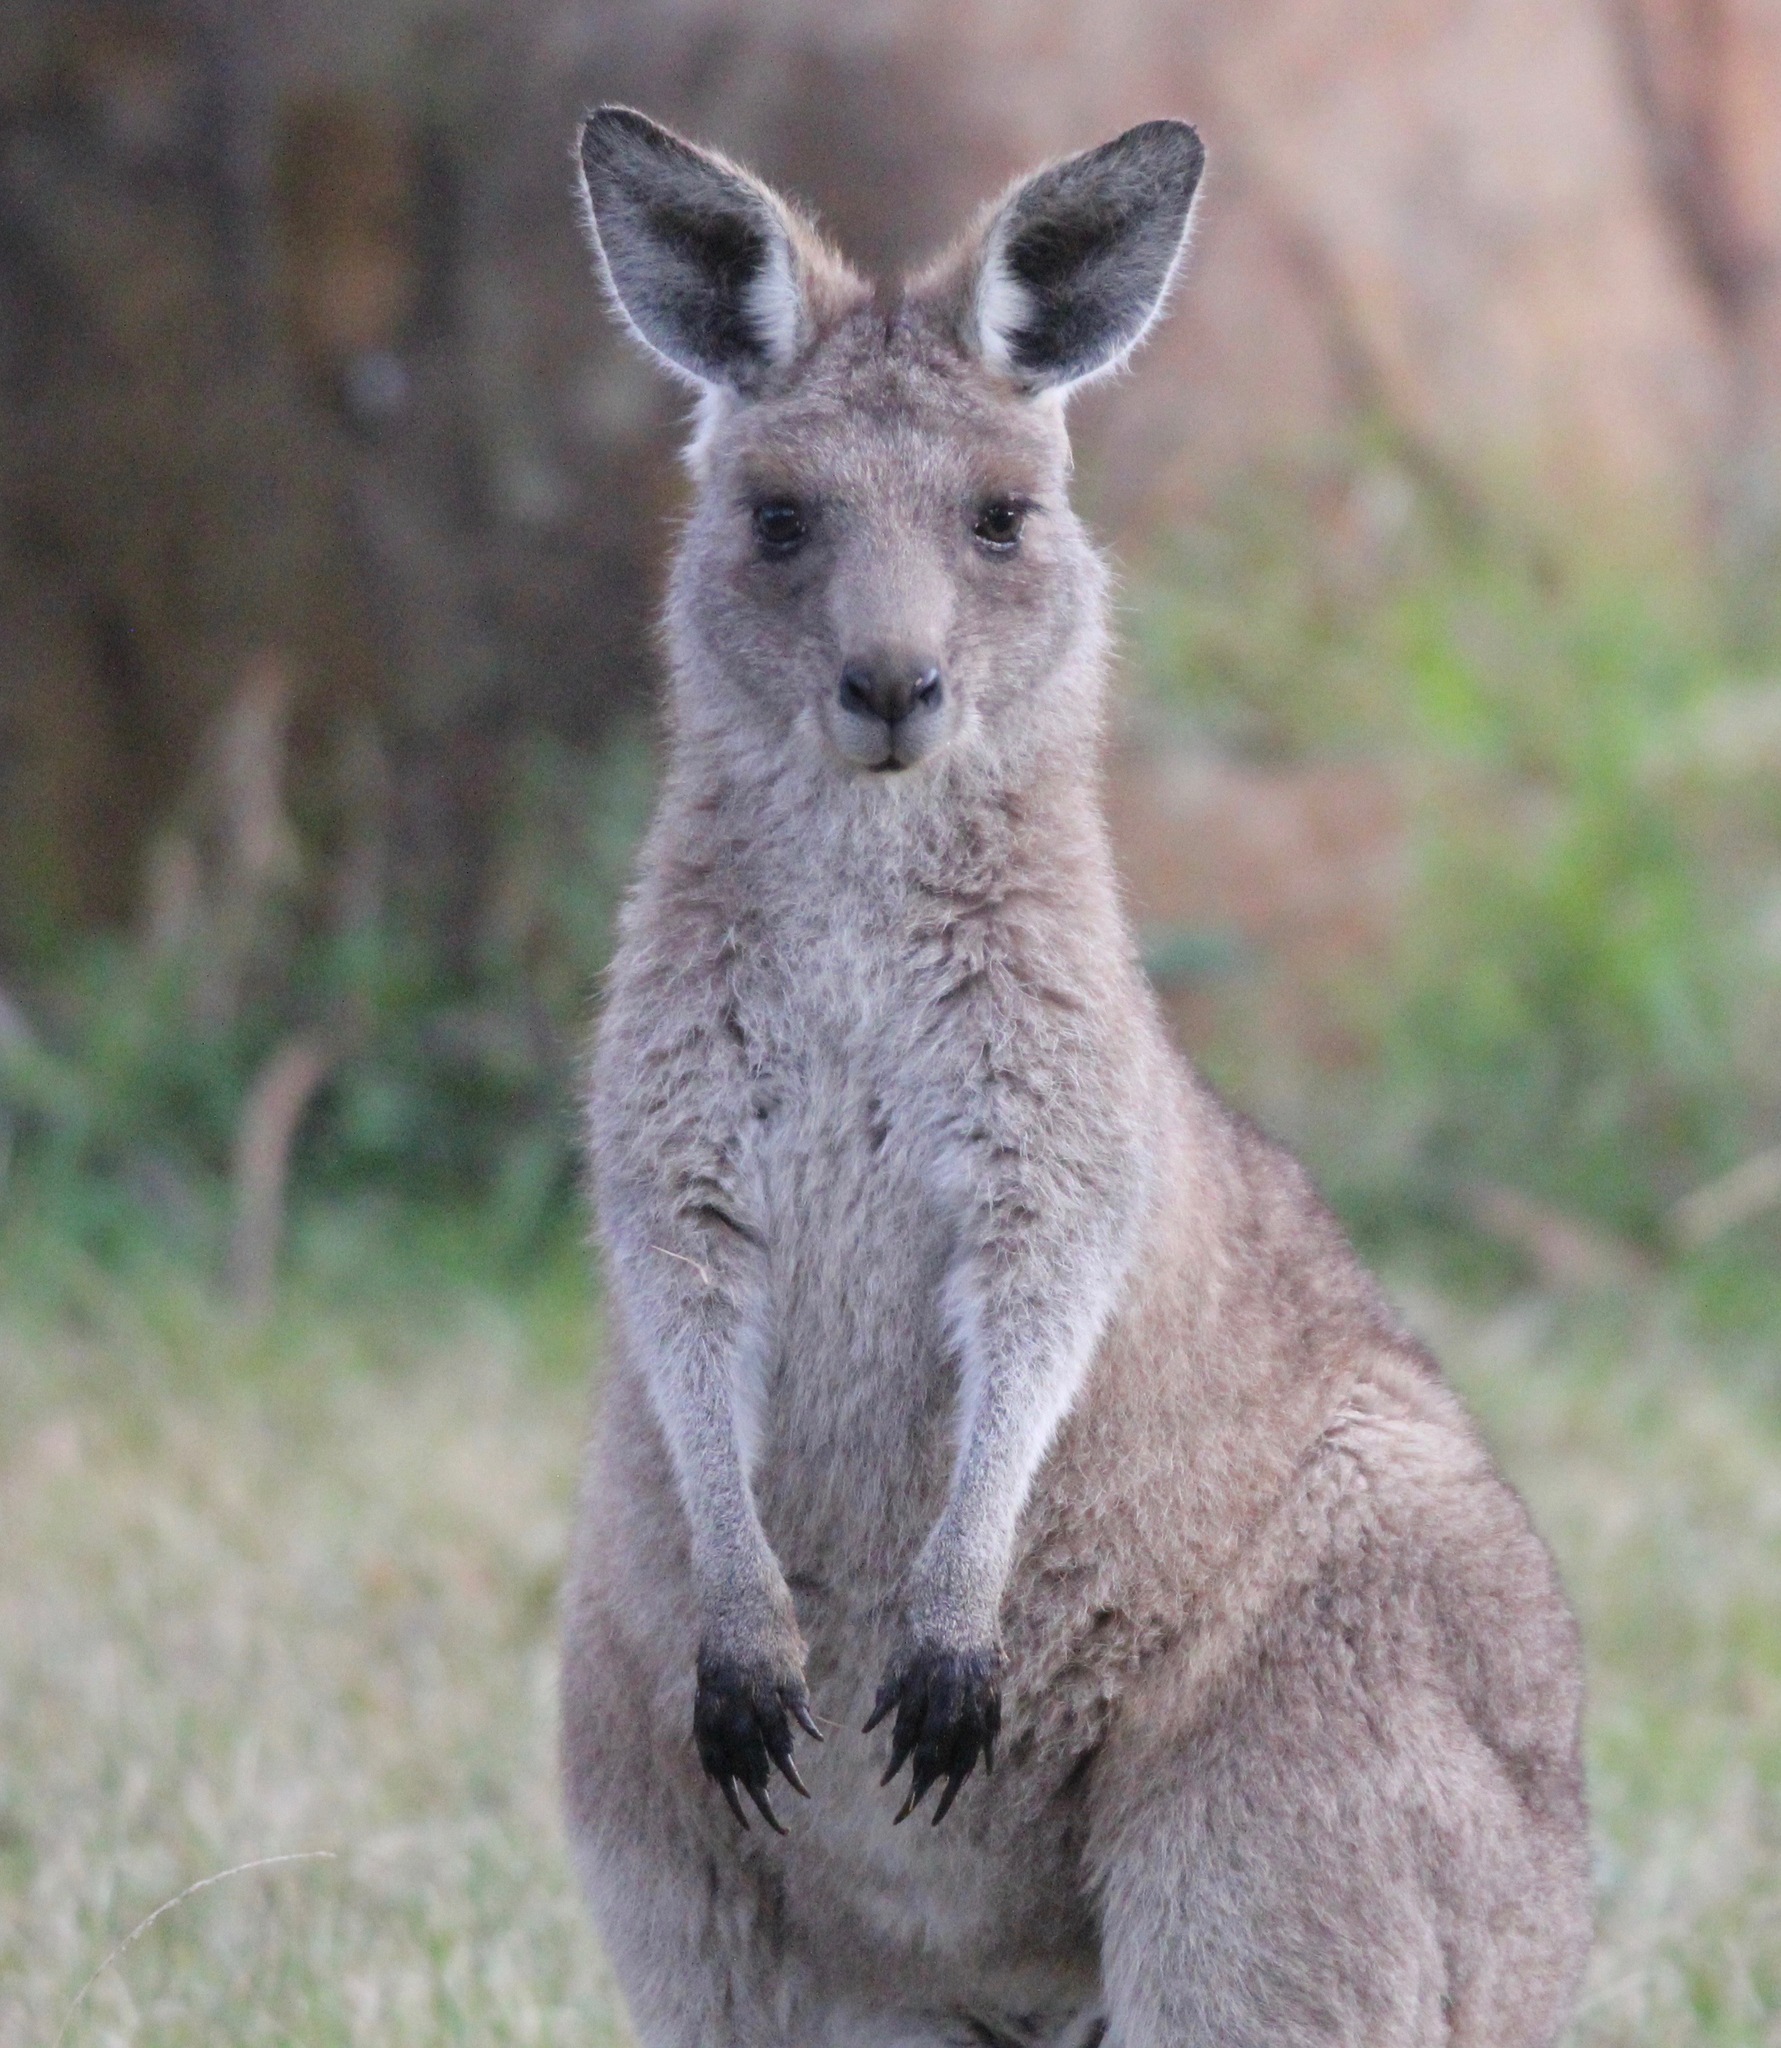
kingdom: Animalia
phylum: Chordata
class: Mammalia
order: Diprotodontia
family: Macropodidae
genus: Macropus
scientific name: Macropus giganteus
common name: Eastern grey kangaroo
